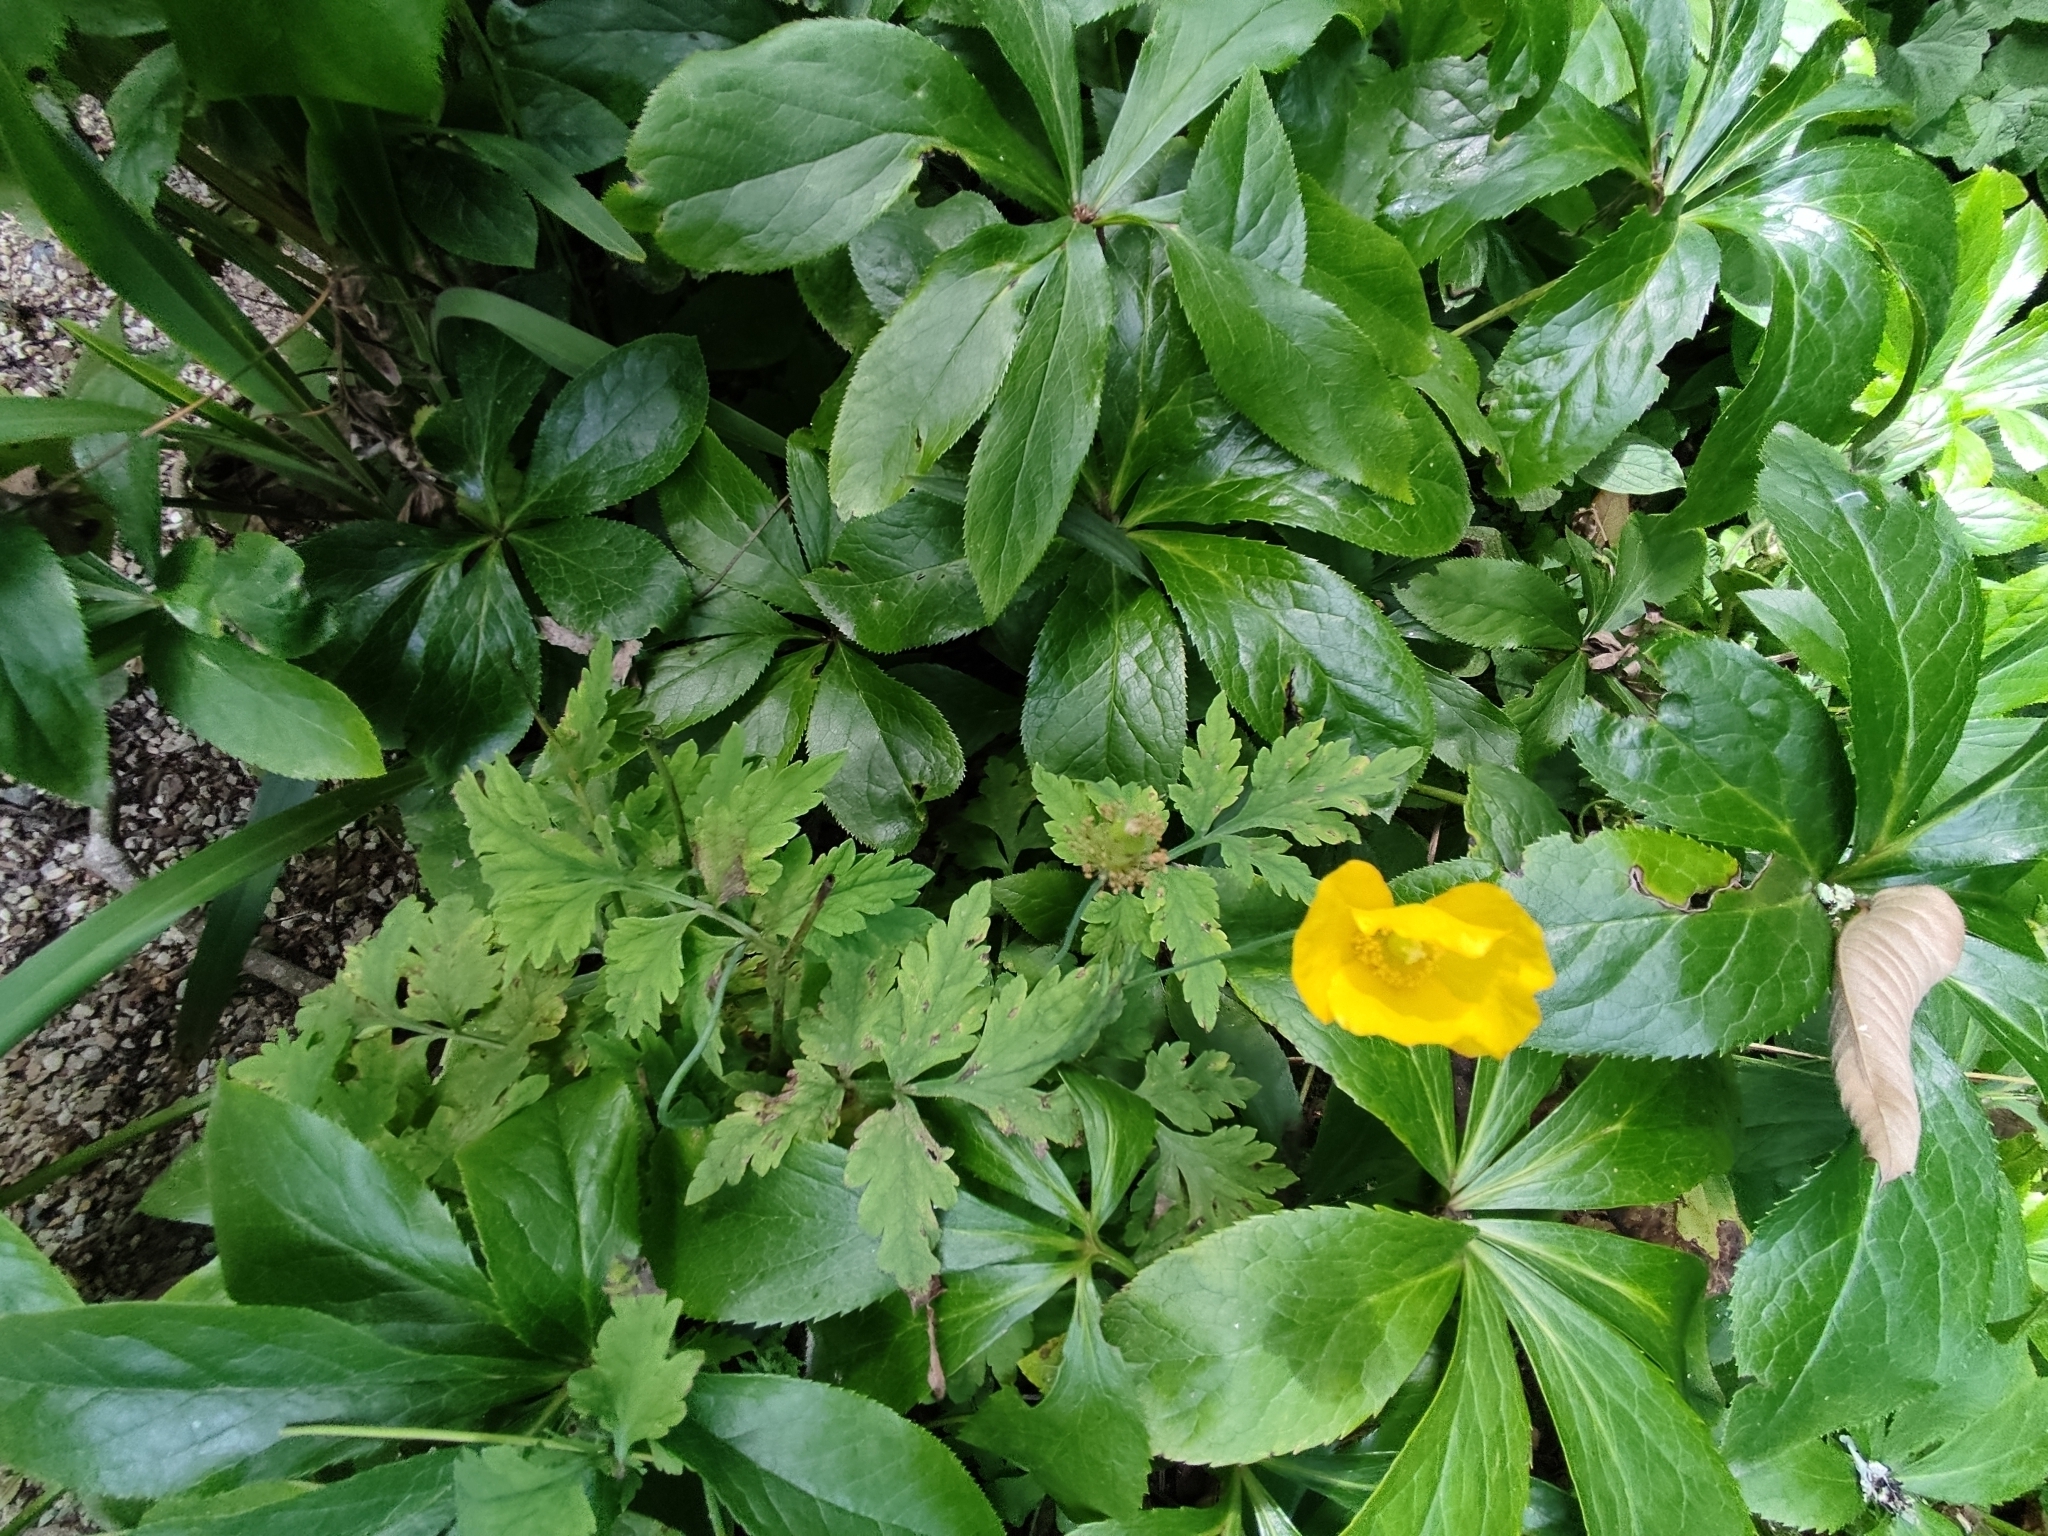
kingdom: Plantae
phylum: Tracheophyta
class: Magnoliopsida
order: Ranunculales
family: Papaveraceae
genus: Papaver
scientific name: Papaver cambricum
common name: Poppy
